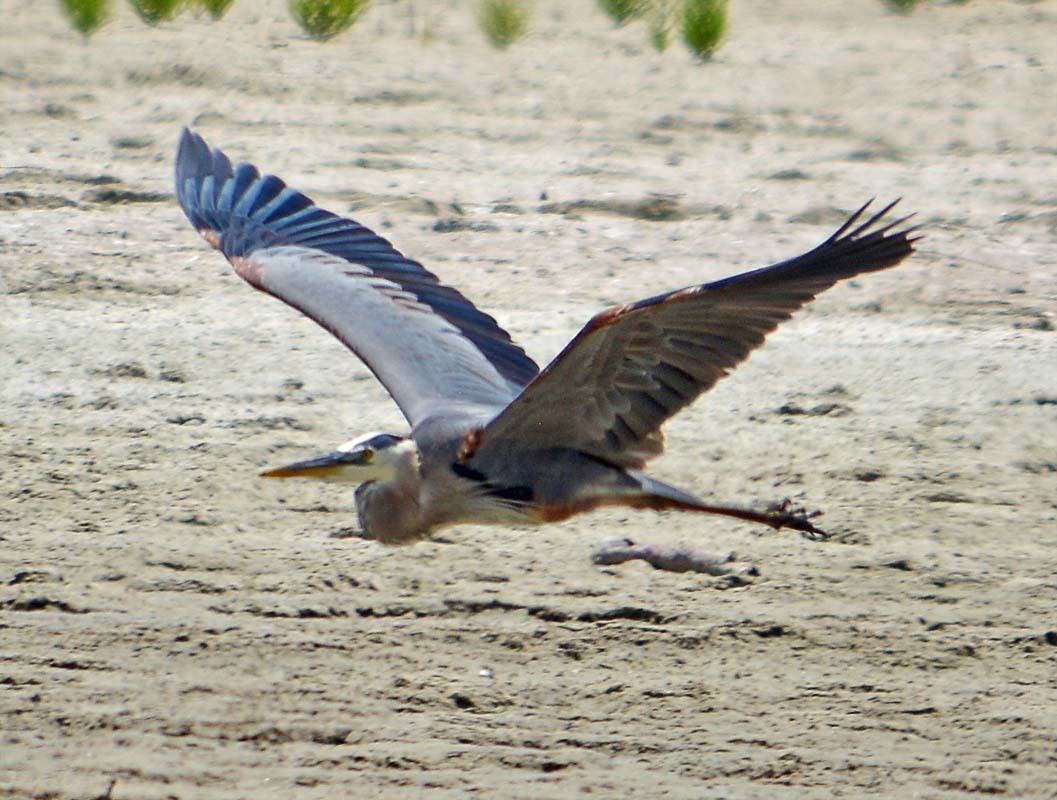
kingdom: Animalia
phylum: Chordata
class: Aves
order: Pelecaniformes
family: Ardeidae
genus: Ardea
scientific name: Ardea herodias
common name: Great blue heron
